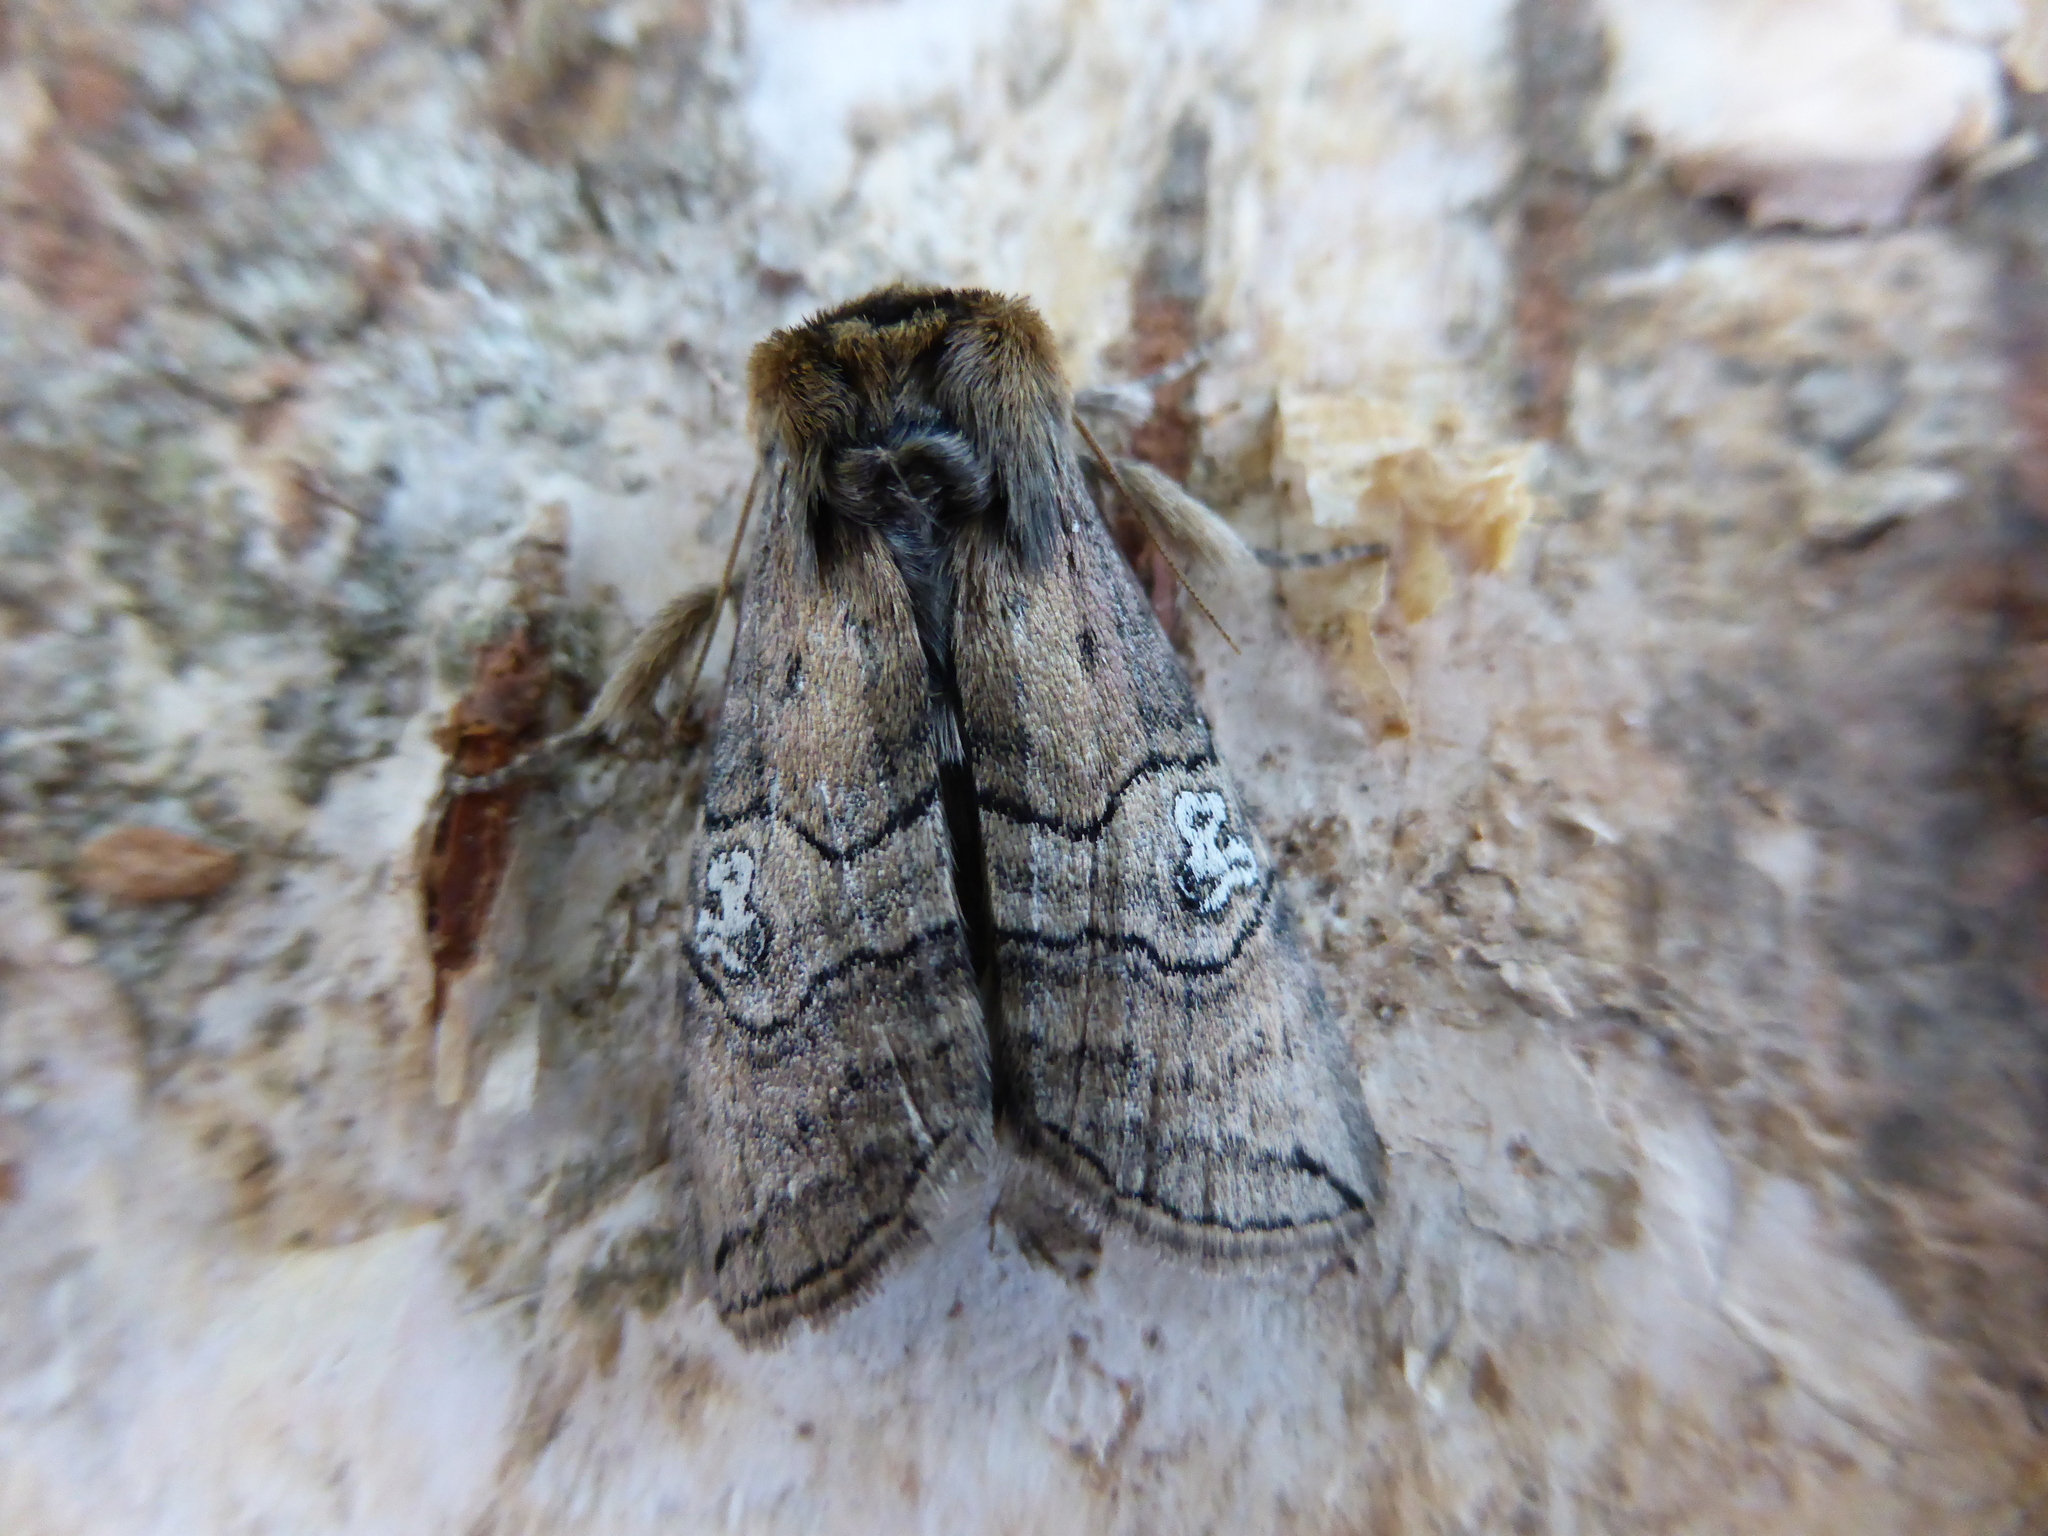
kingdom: Animalia
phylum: Arthropoda
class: Insecta
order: Lepidoptera
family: Drepanidae
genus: Tethea
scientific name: Tethea ocularis
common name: Figure of eighty
